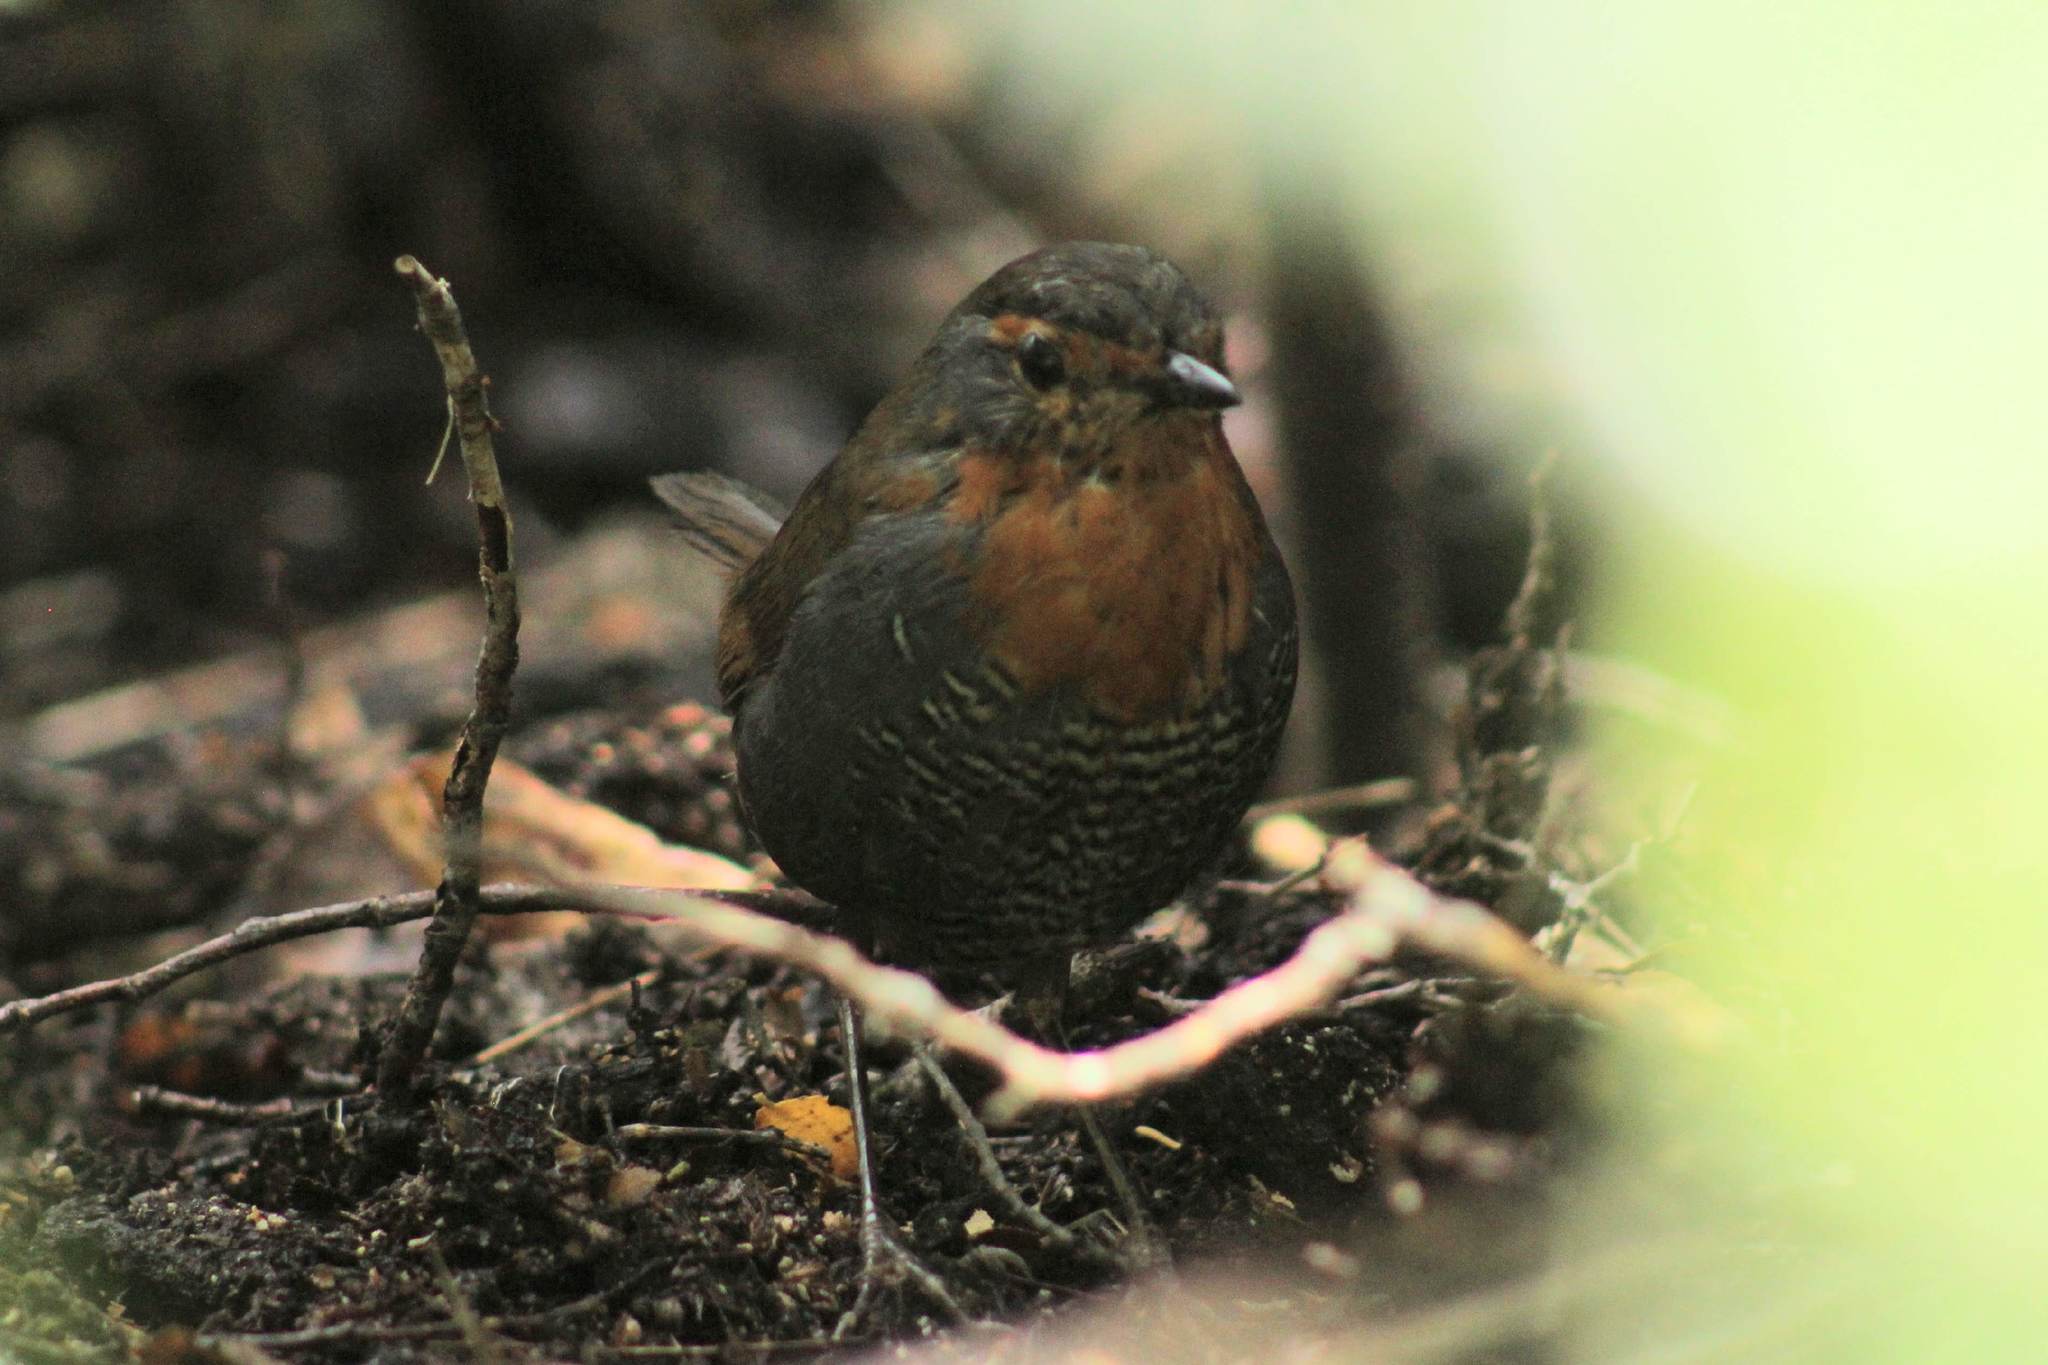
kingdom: Animalia
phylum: Chordata
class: Aves
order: Passeriformes
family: Rhinocryptidae
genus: Scelorchilus
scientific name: Scelorchilus rubecula
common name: Chucao tapaculo
